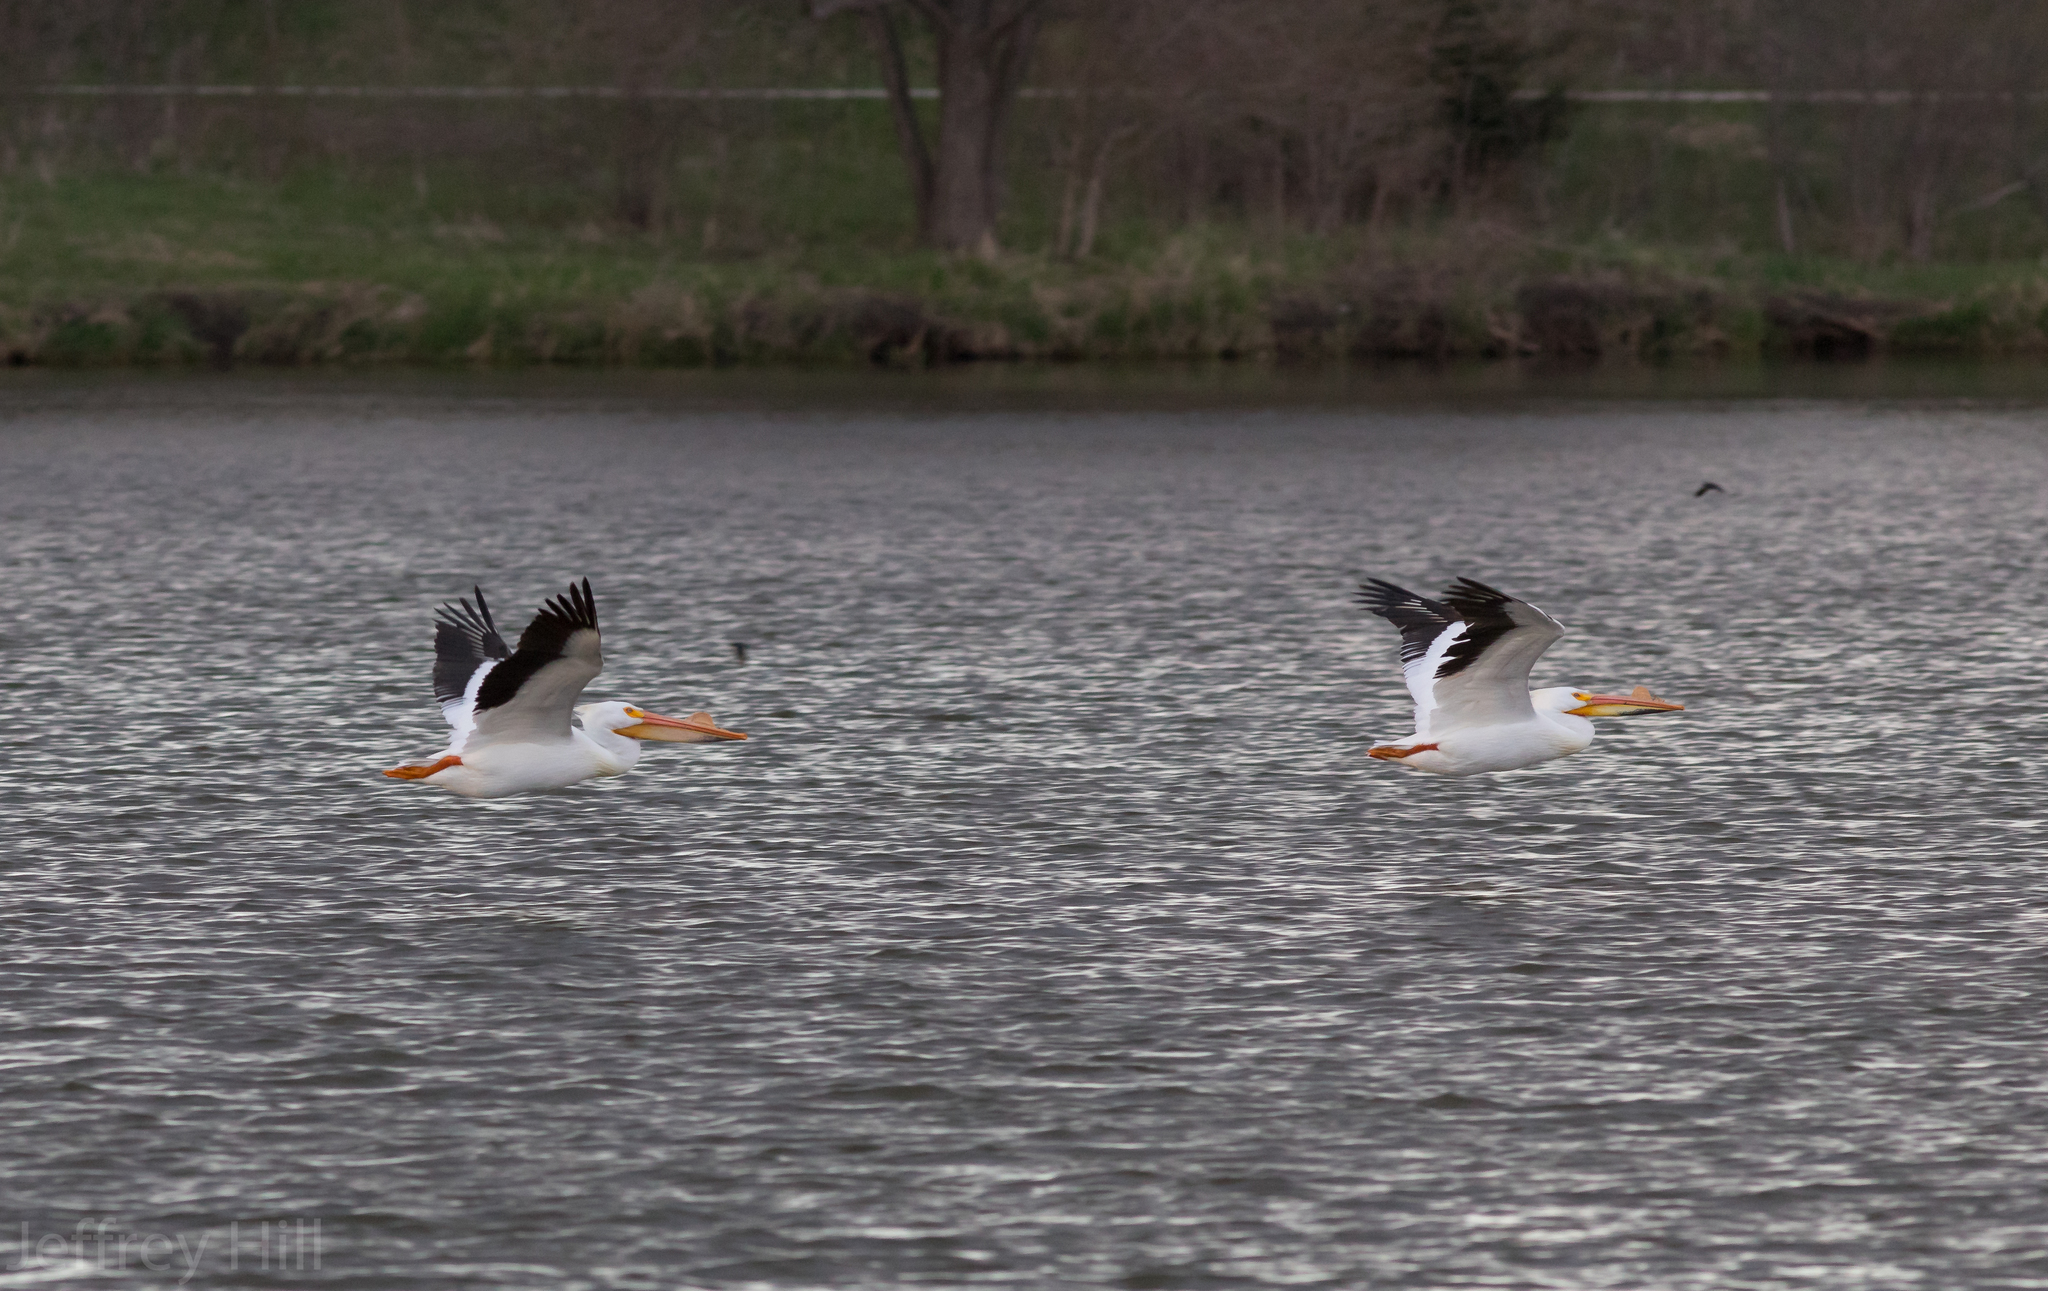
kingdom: Animalia
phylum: Chordata
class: Aves
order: Pelecaniformes
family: Pelecanidae
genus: Pelecanus
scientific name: Pelecanus erythrorhynchos
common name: American white pelican
